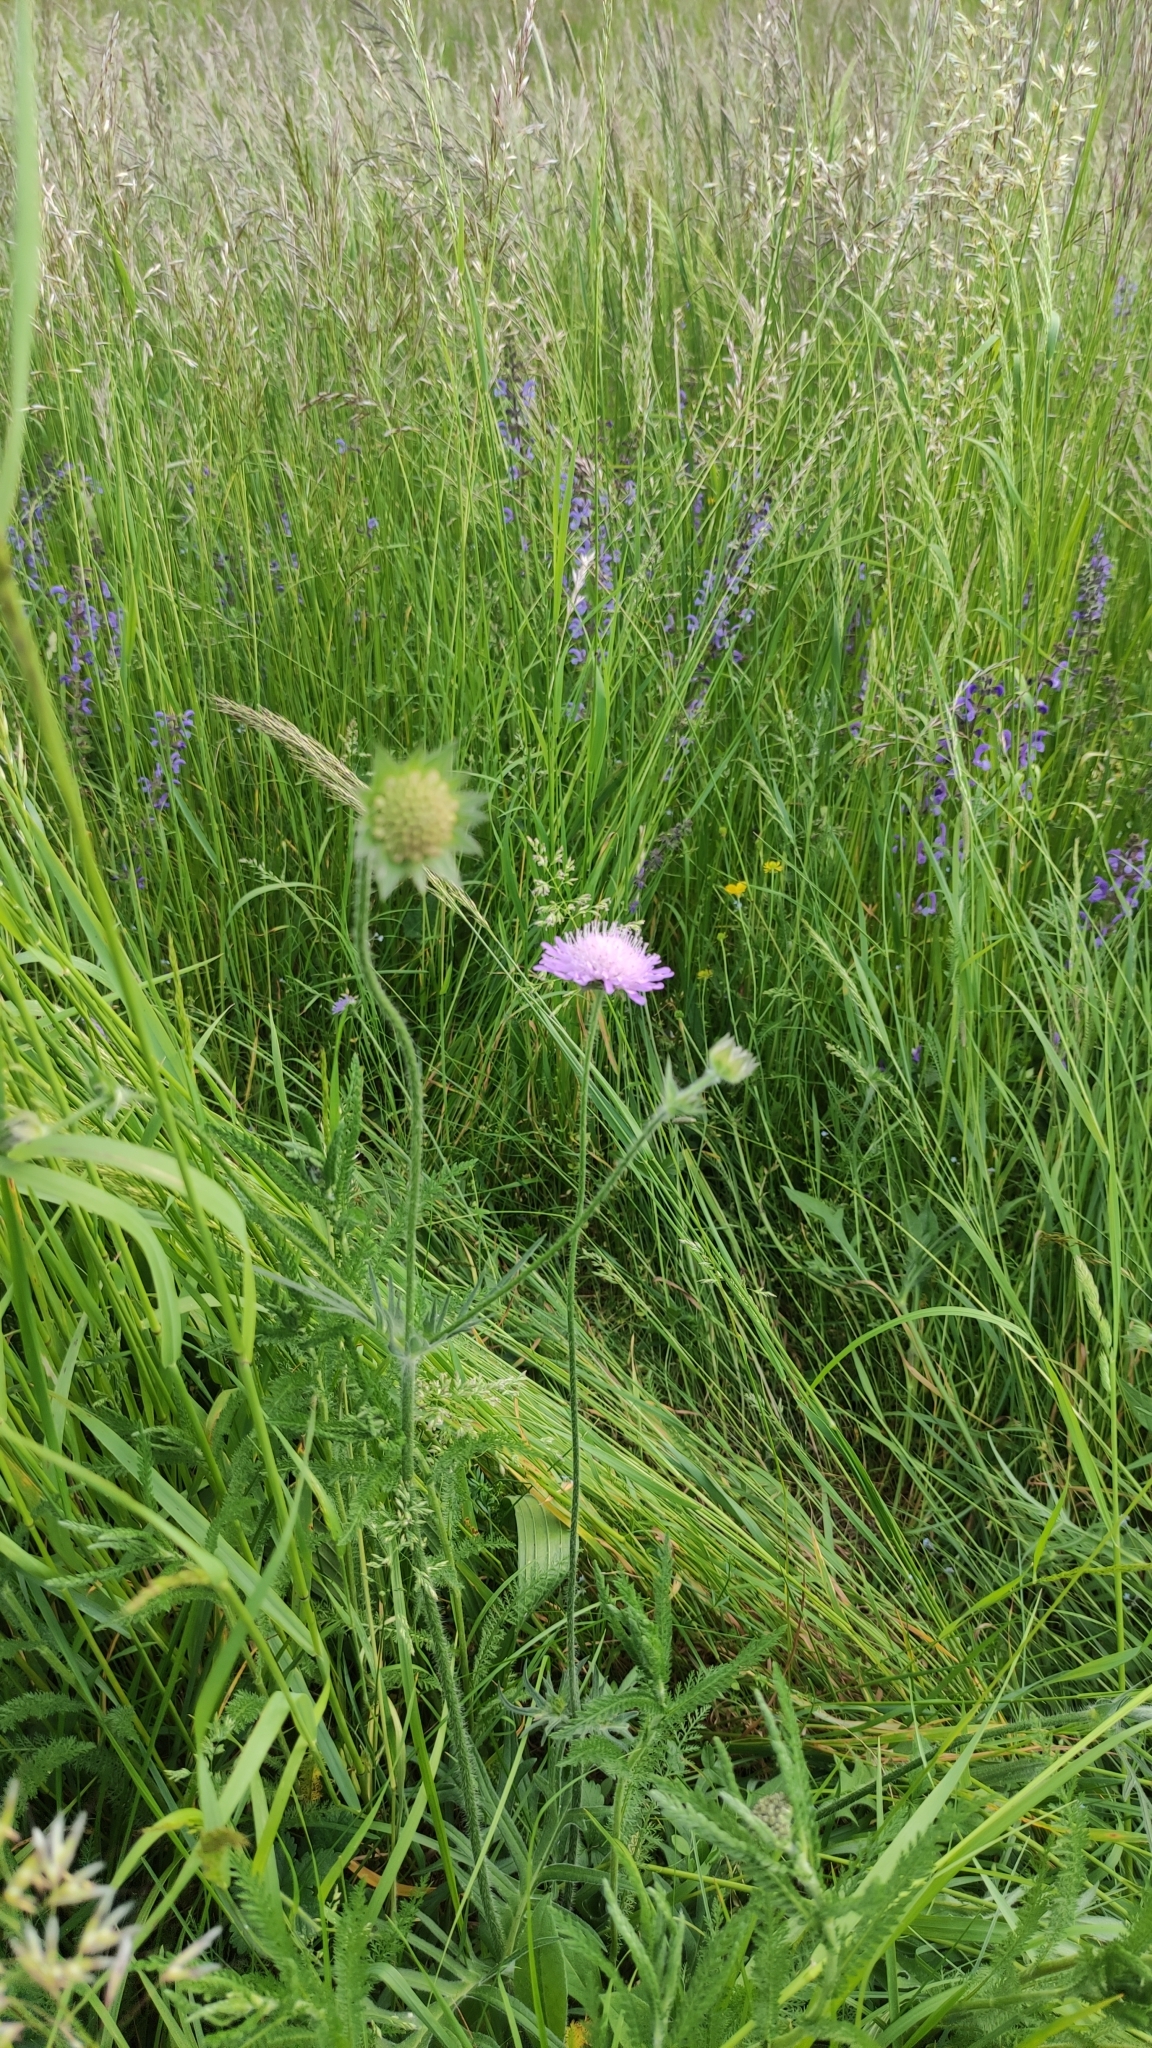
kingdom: Plantae
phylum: Tracheophyta
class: Magnoliopsida
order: Dipsacales
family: Caprifoliaceae
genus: Knautia
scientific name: Knautia arvensis
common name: Field scabiosa
